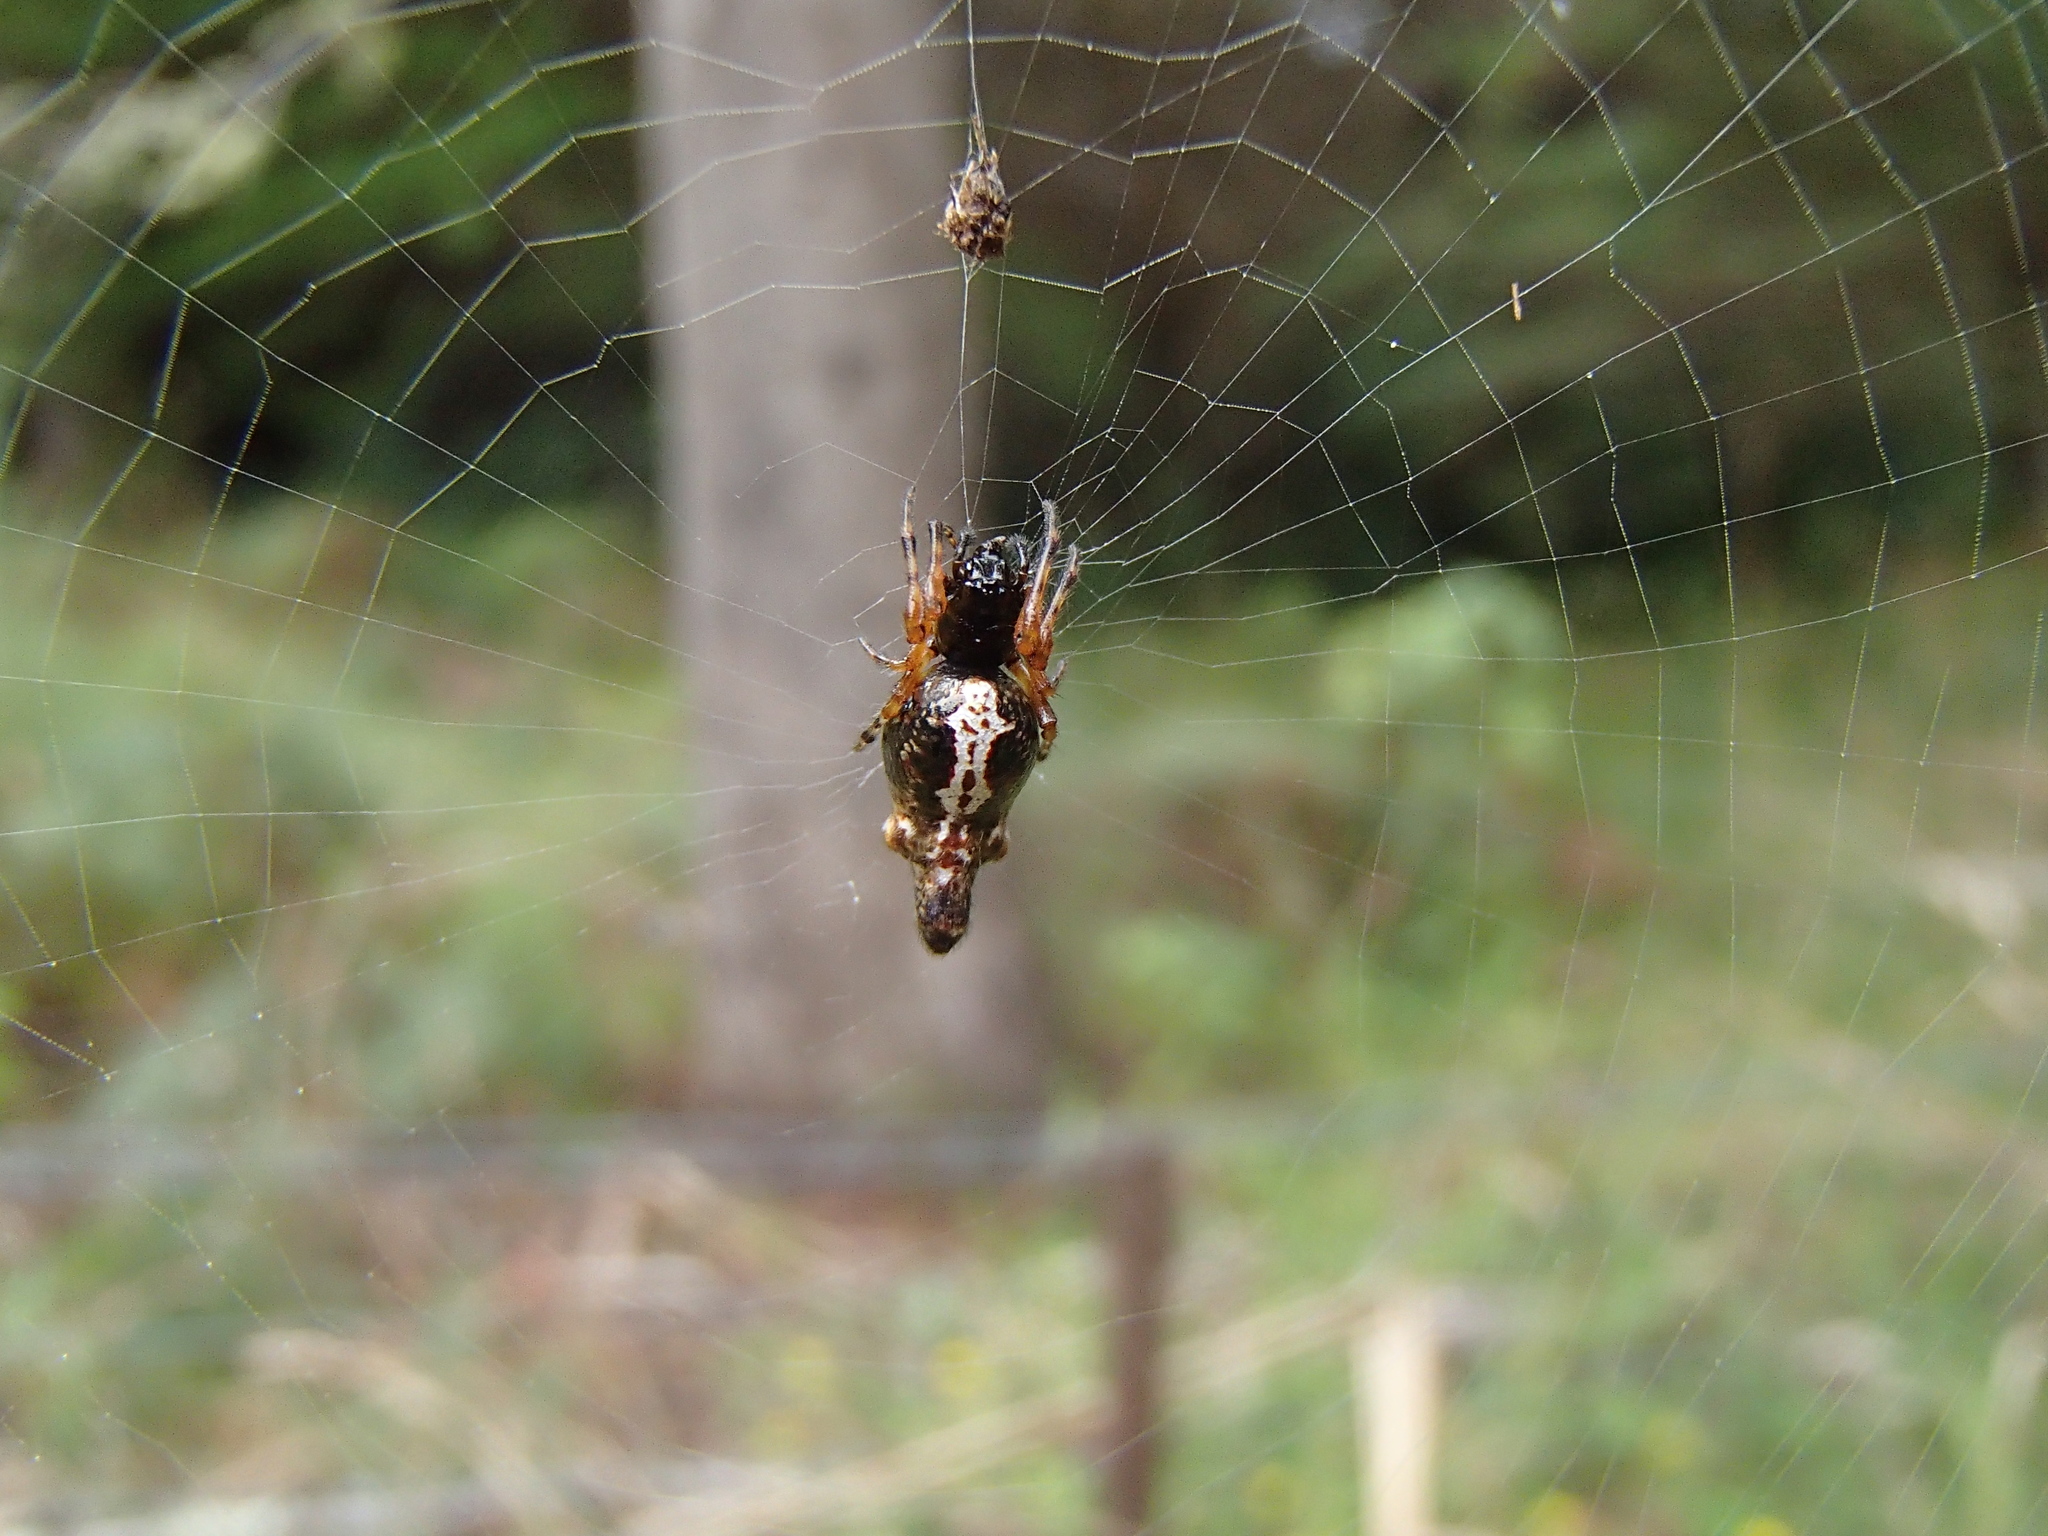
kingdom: Animalia
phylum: Arthropoda
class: Arachnida
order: Araneae
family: Araneidae
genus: Cyclosa
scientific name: Cyclosa trilobata
